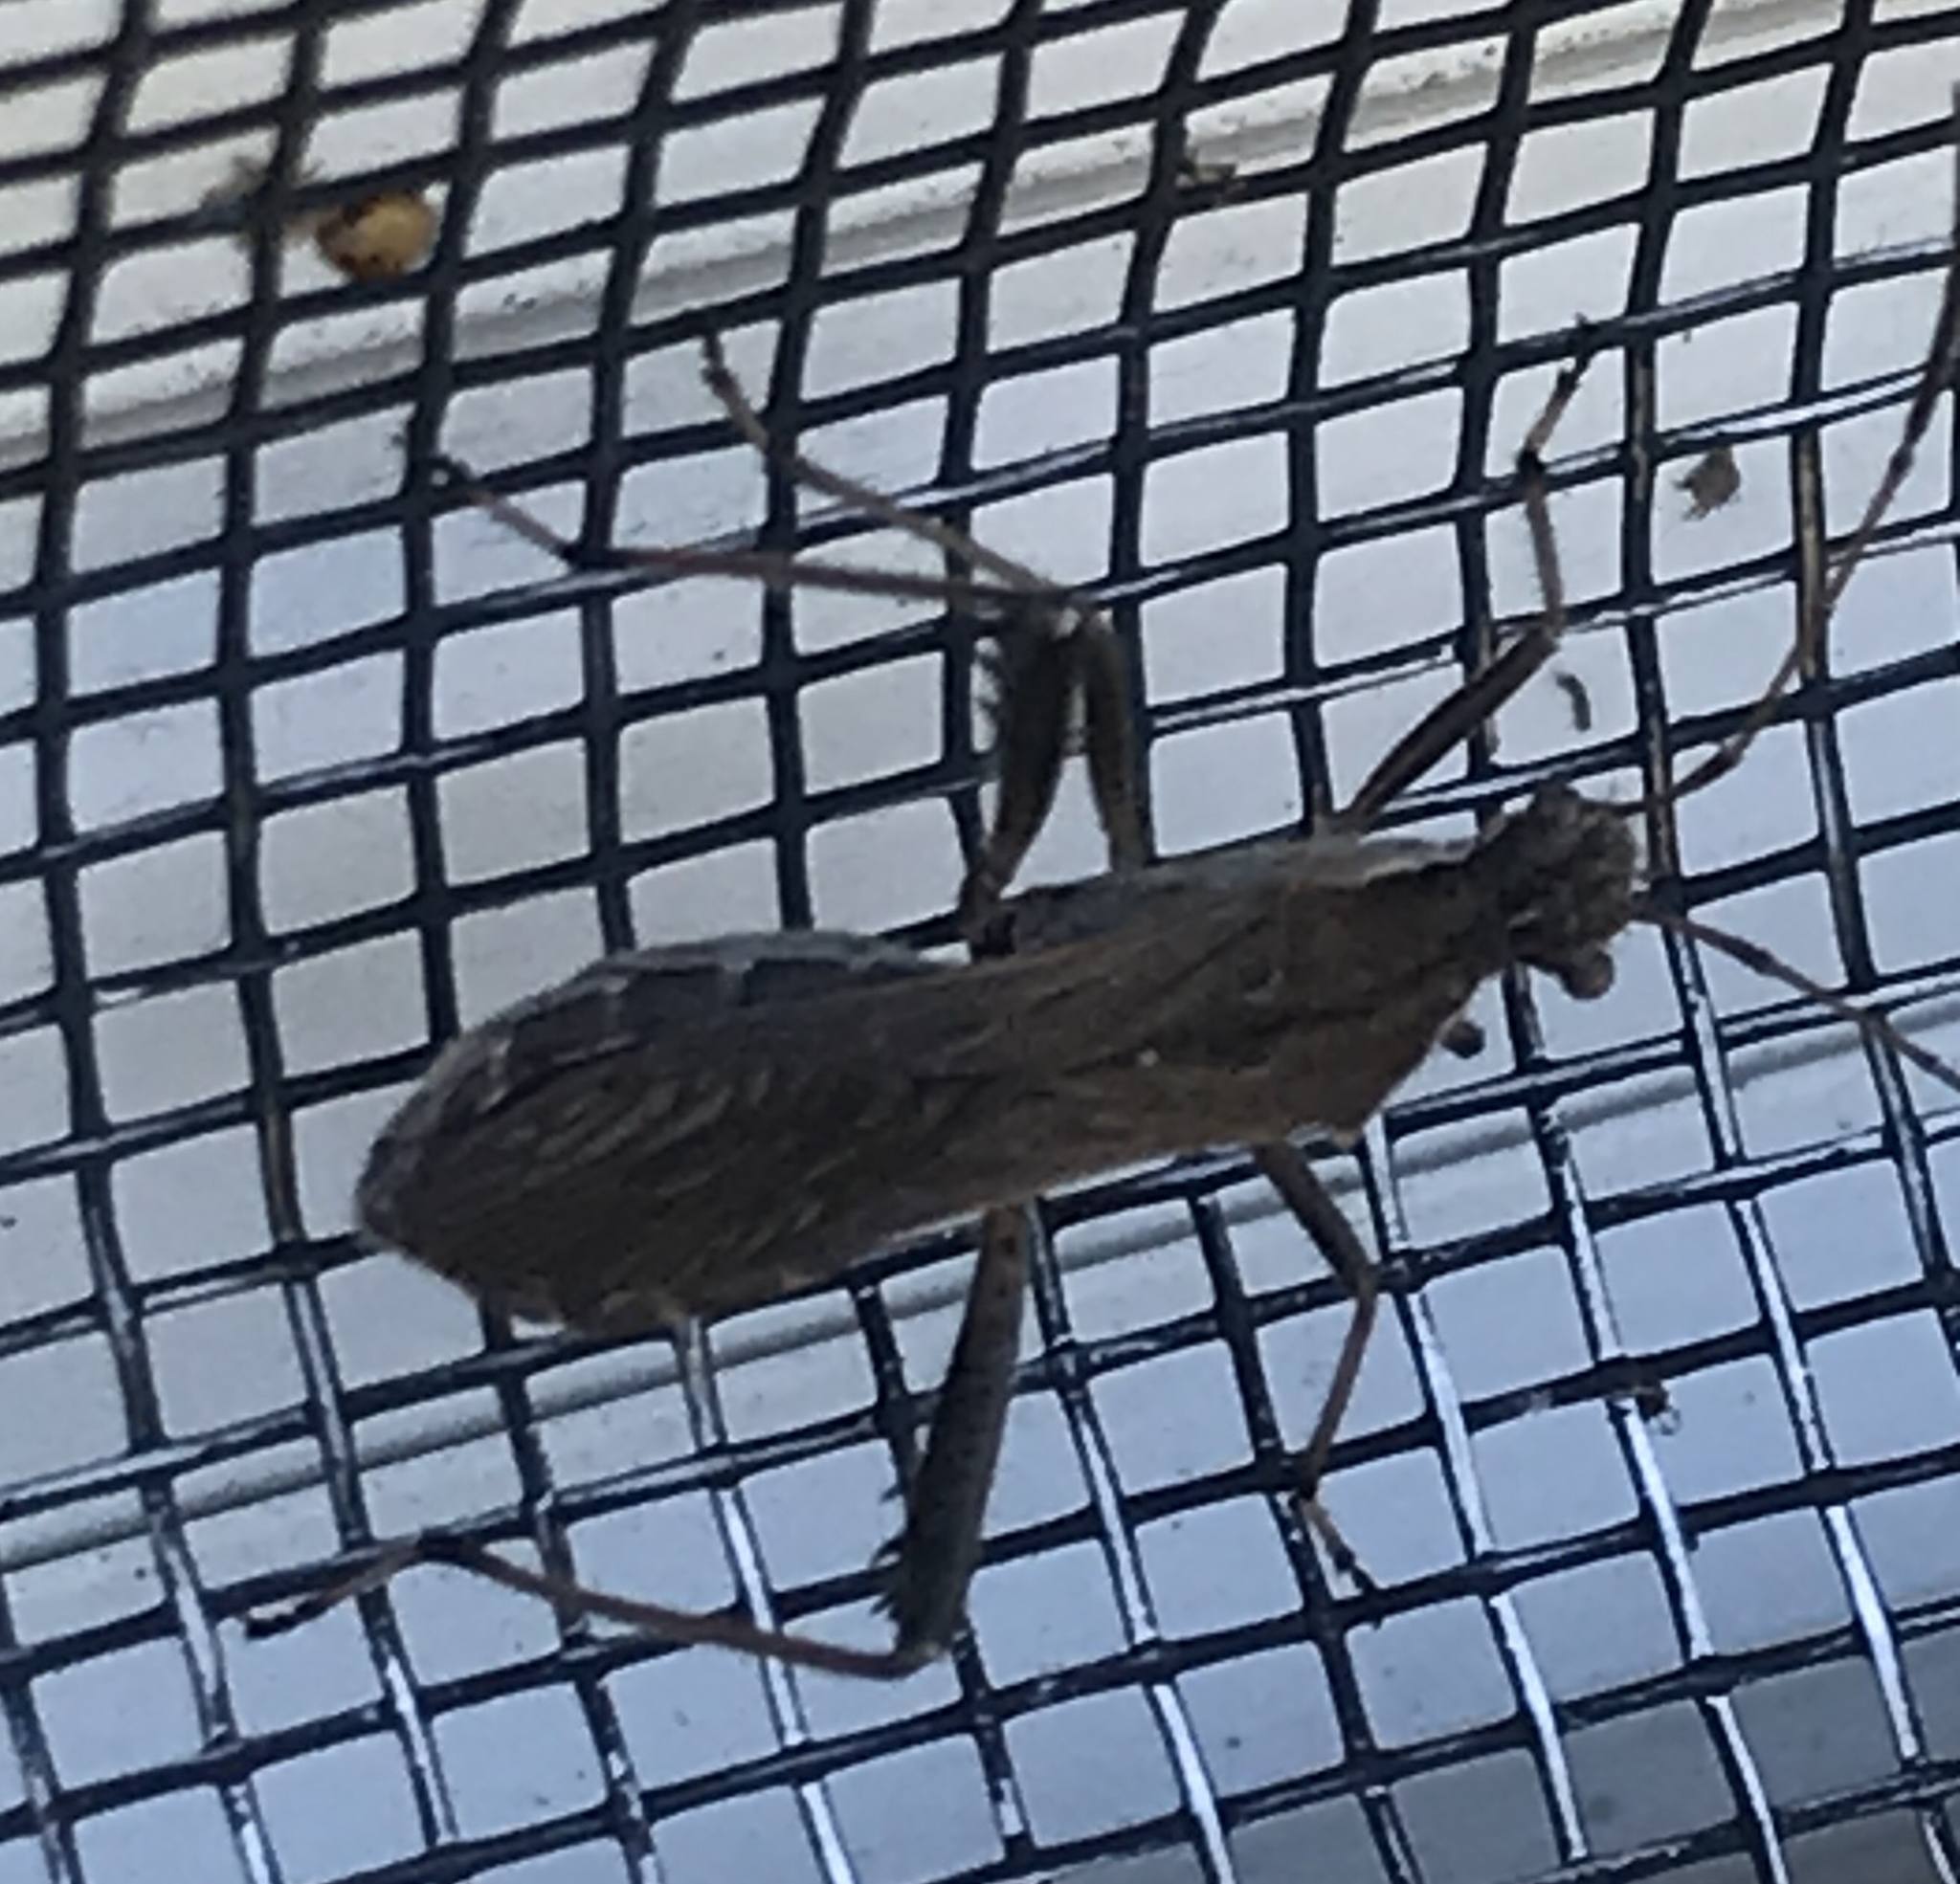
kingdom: Animalia
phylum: Arthropoda
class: Insecta
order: Hemiptera
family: Alydidae
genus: Alydus
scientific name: Alydus pilosulus
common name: Broad-headed bug
